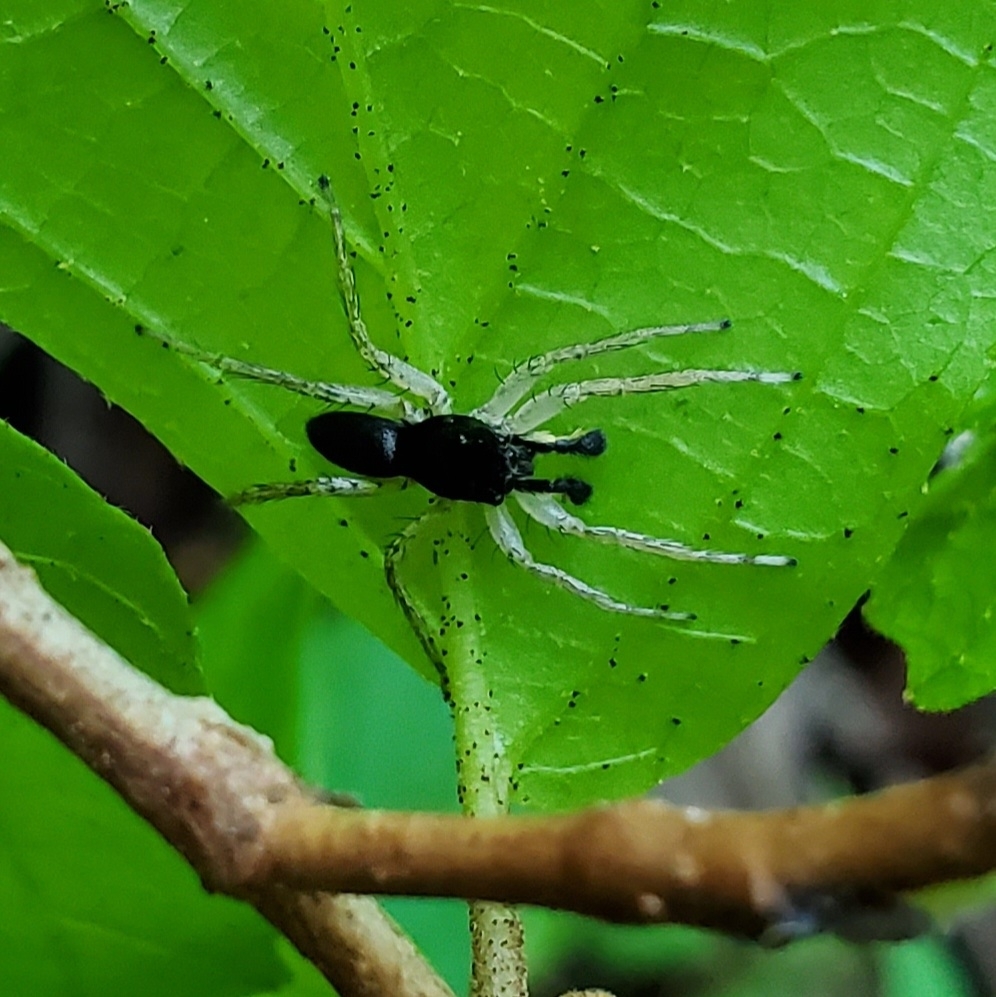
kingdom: Animalia
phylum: Arthropoda
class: Arachnida
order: Araneae
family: Salticidae
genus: Maevia
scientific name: Maevia inclemens
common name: Dimorphic jumper
